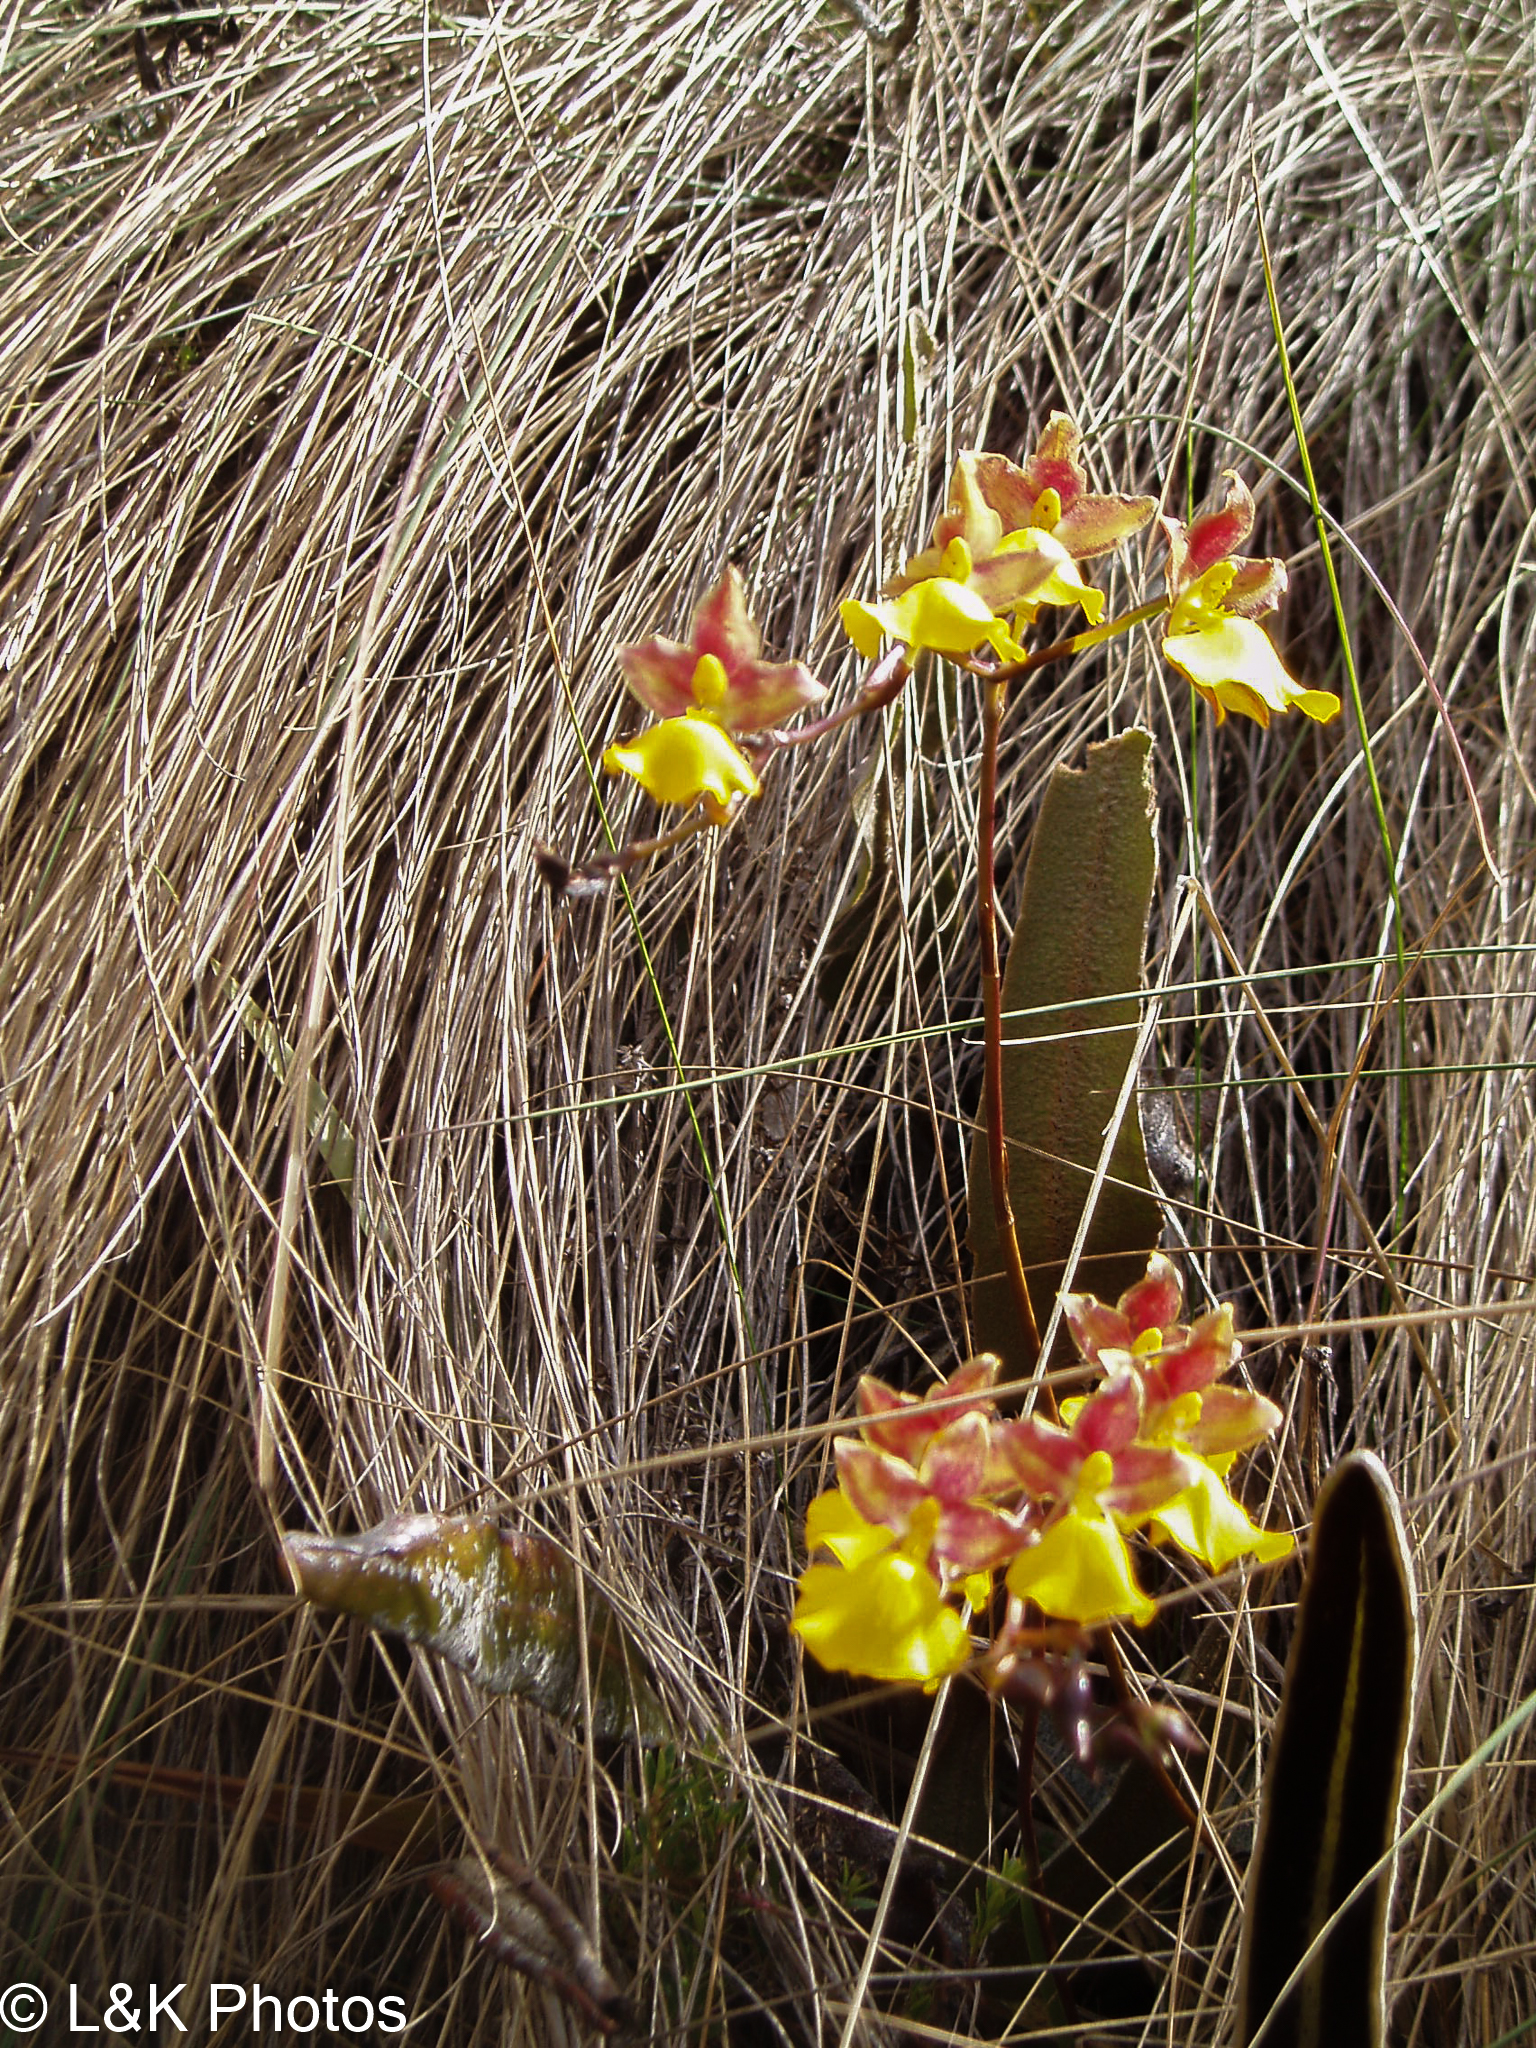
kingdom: Plantae
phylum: Tracheophyta
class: Liliopsida
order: Asparagales
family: Orchidaceae
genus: Cyrtochilum
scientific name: Cyrtochilum aureum
